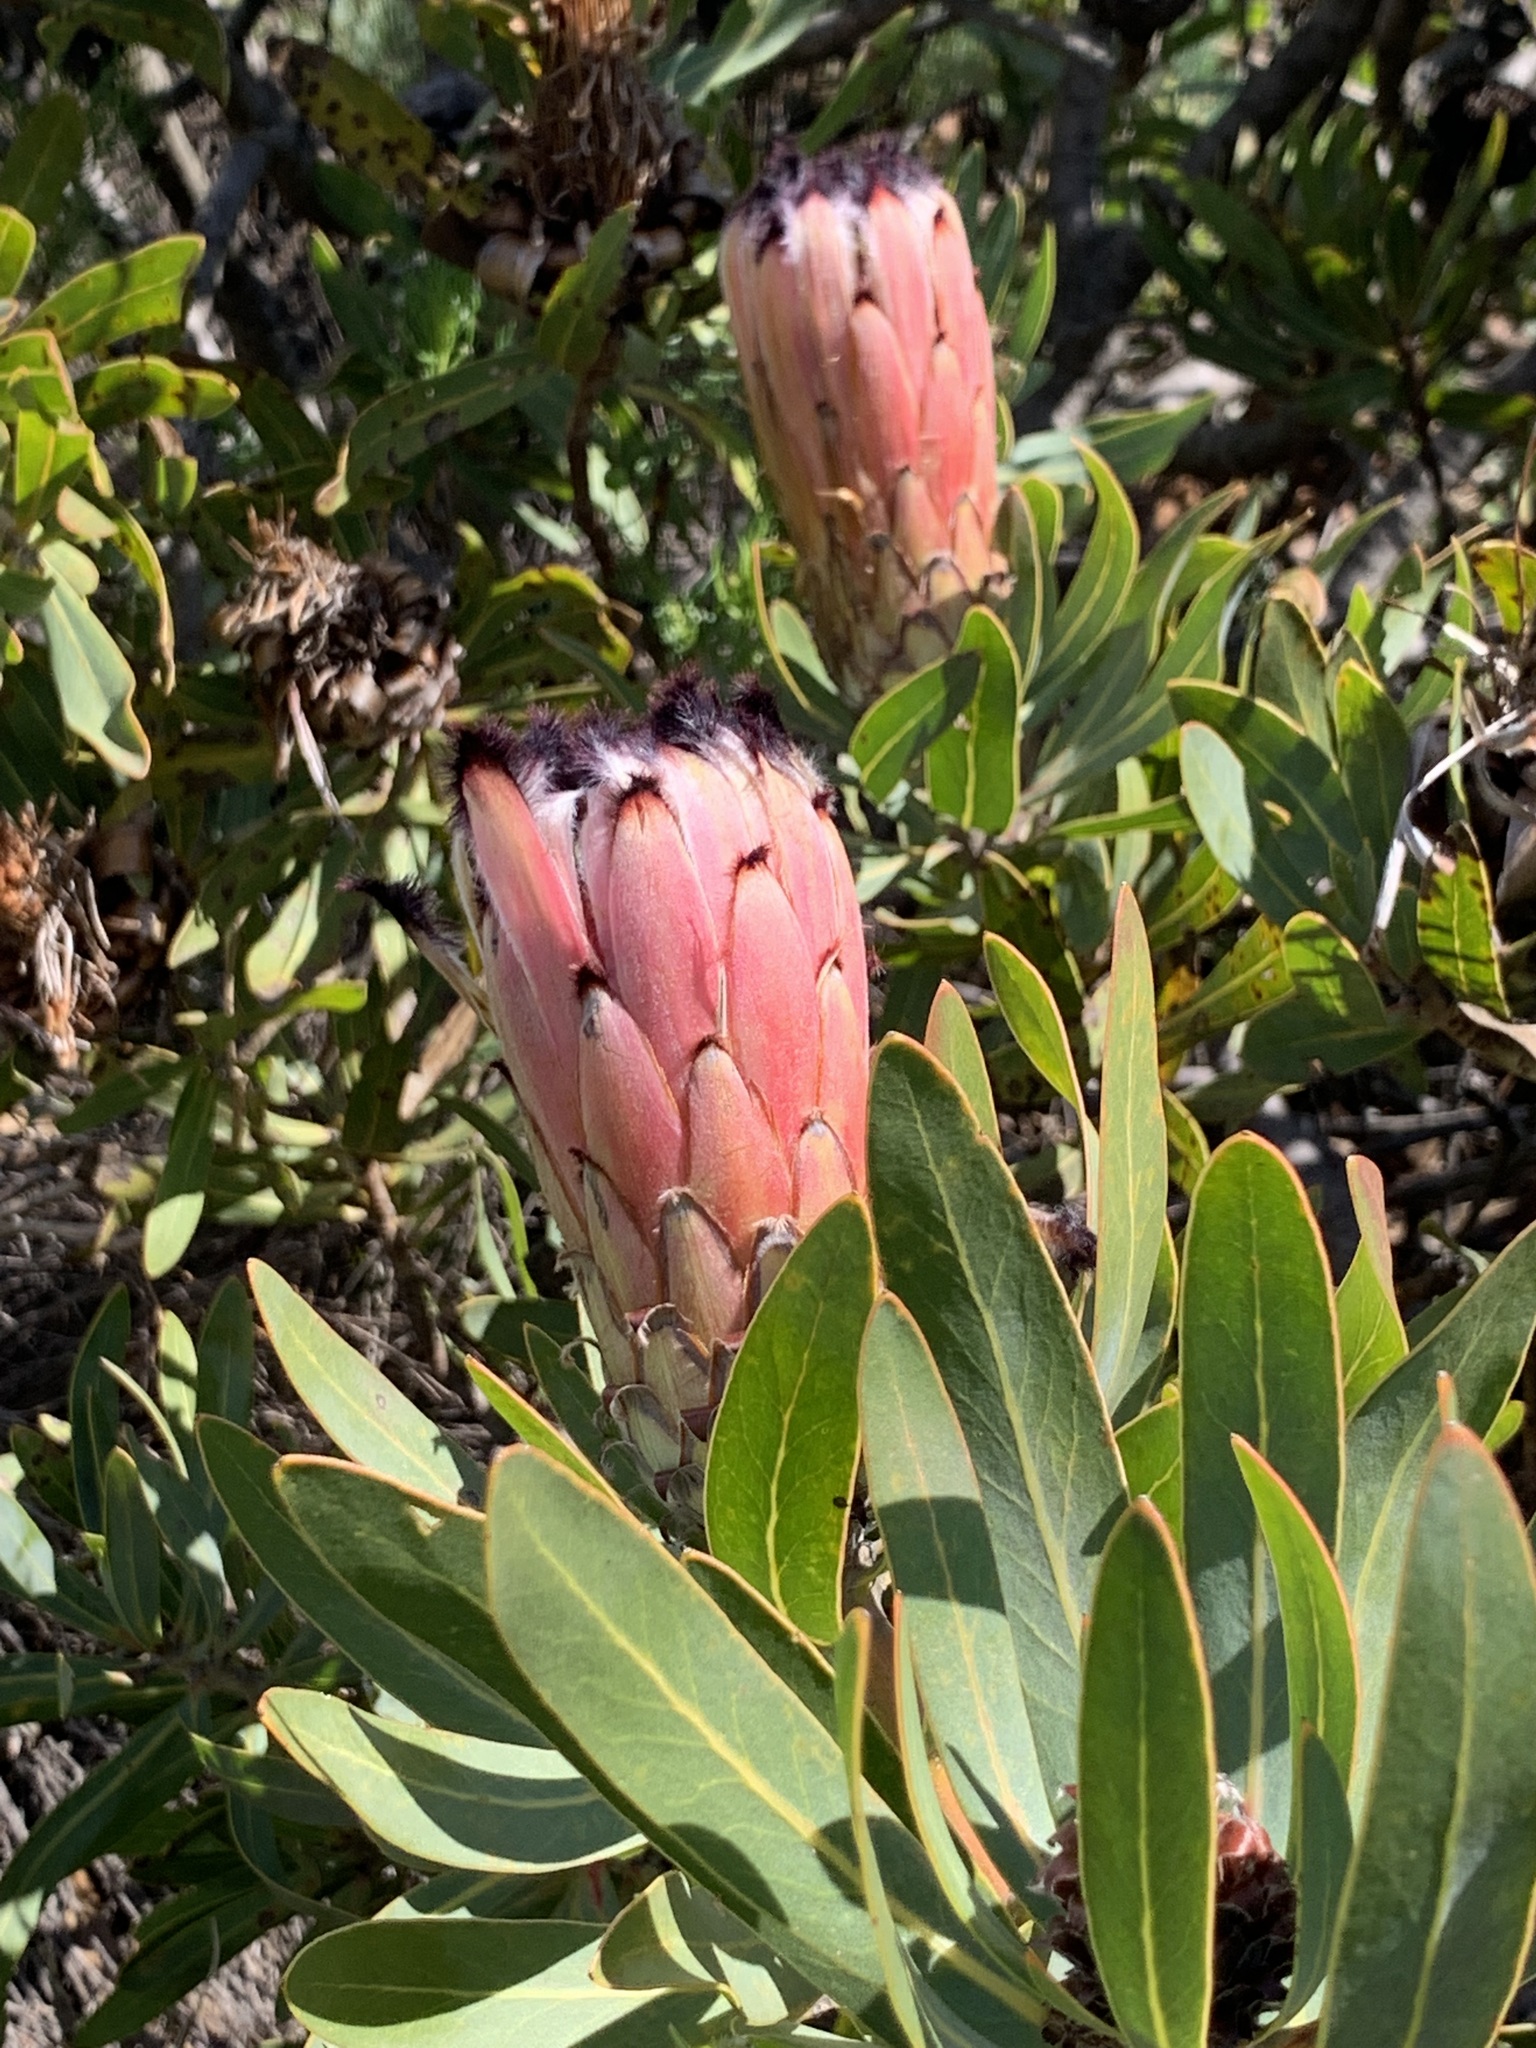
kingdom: Plantae
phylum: Tracheophyta
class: Magnoliopsida
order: Proteales
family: Proteaceae
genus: Protea
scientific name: Protea laurifolia
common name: Grey-leaf sugarbsh
